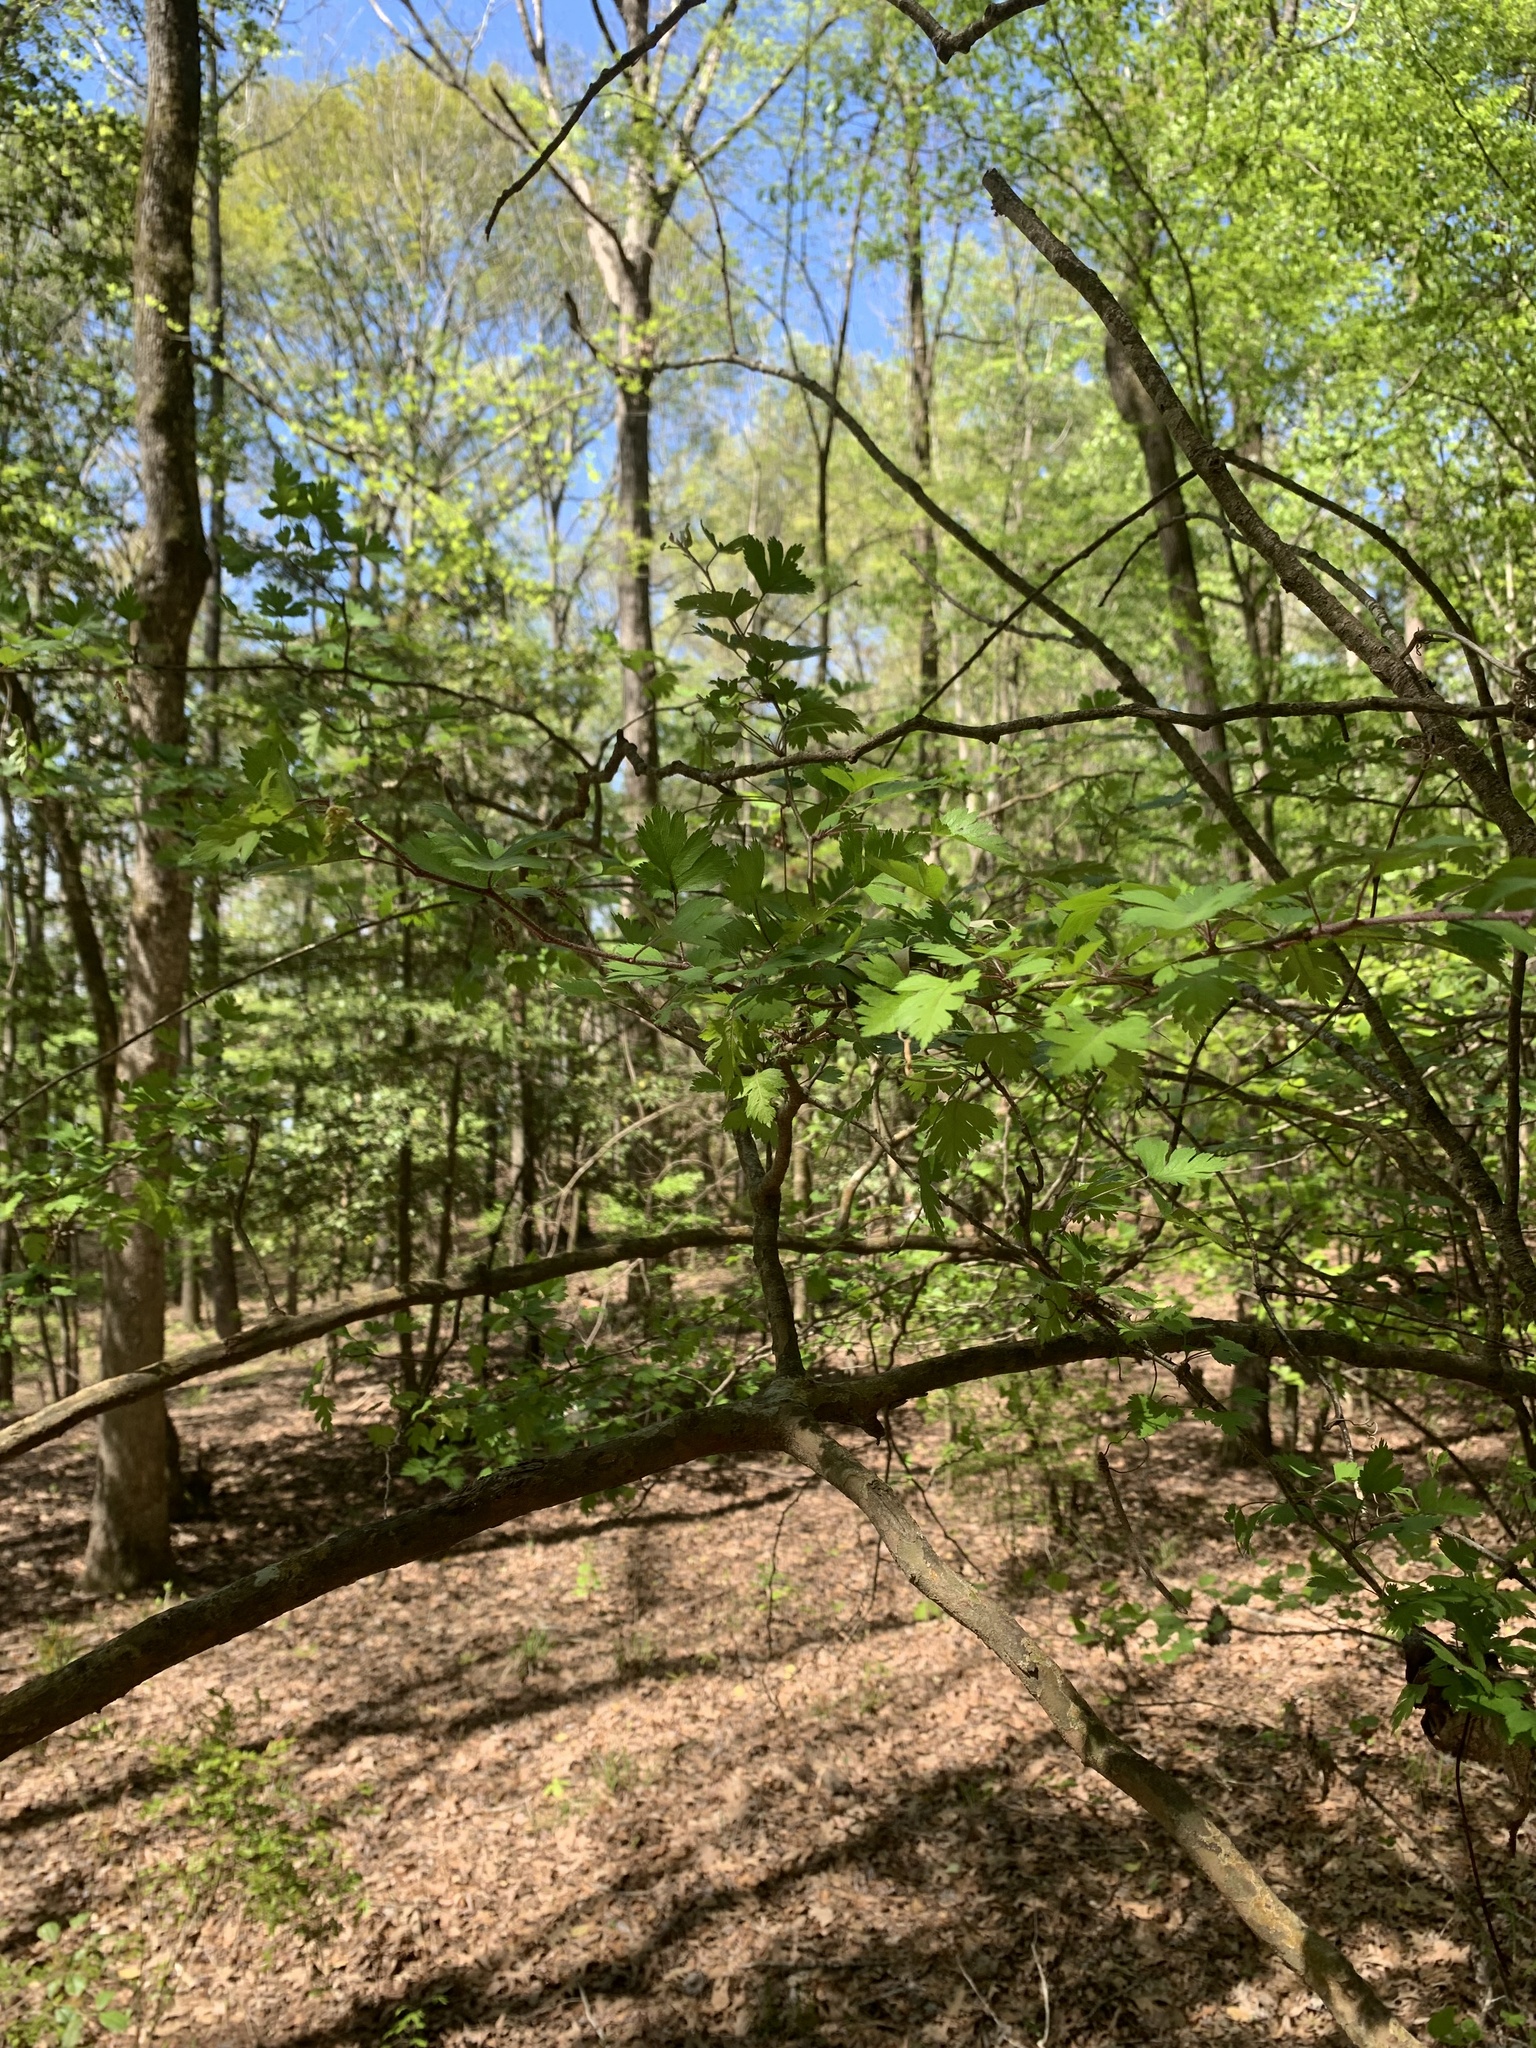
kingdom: Plantae
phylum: Tracheophyta
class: Magnoliopsida
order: Rosales
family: Rosaceae
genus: Crataegus
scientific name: Crataegus marshallii
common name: Parsley-hawthorn
